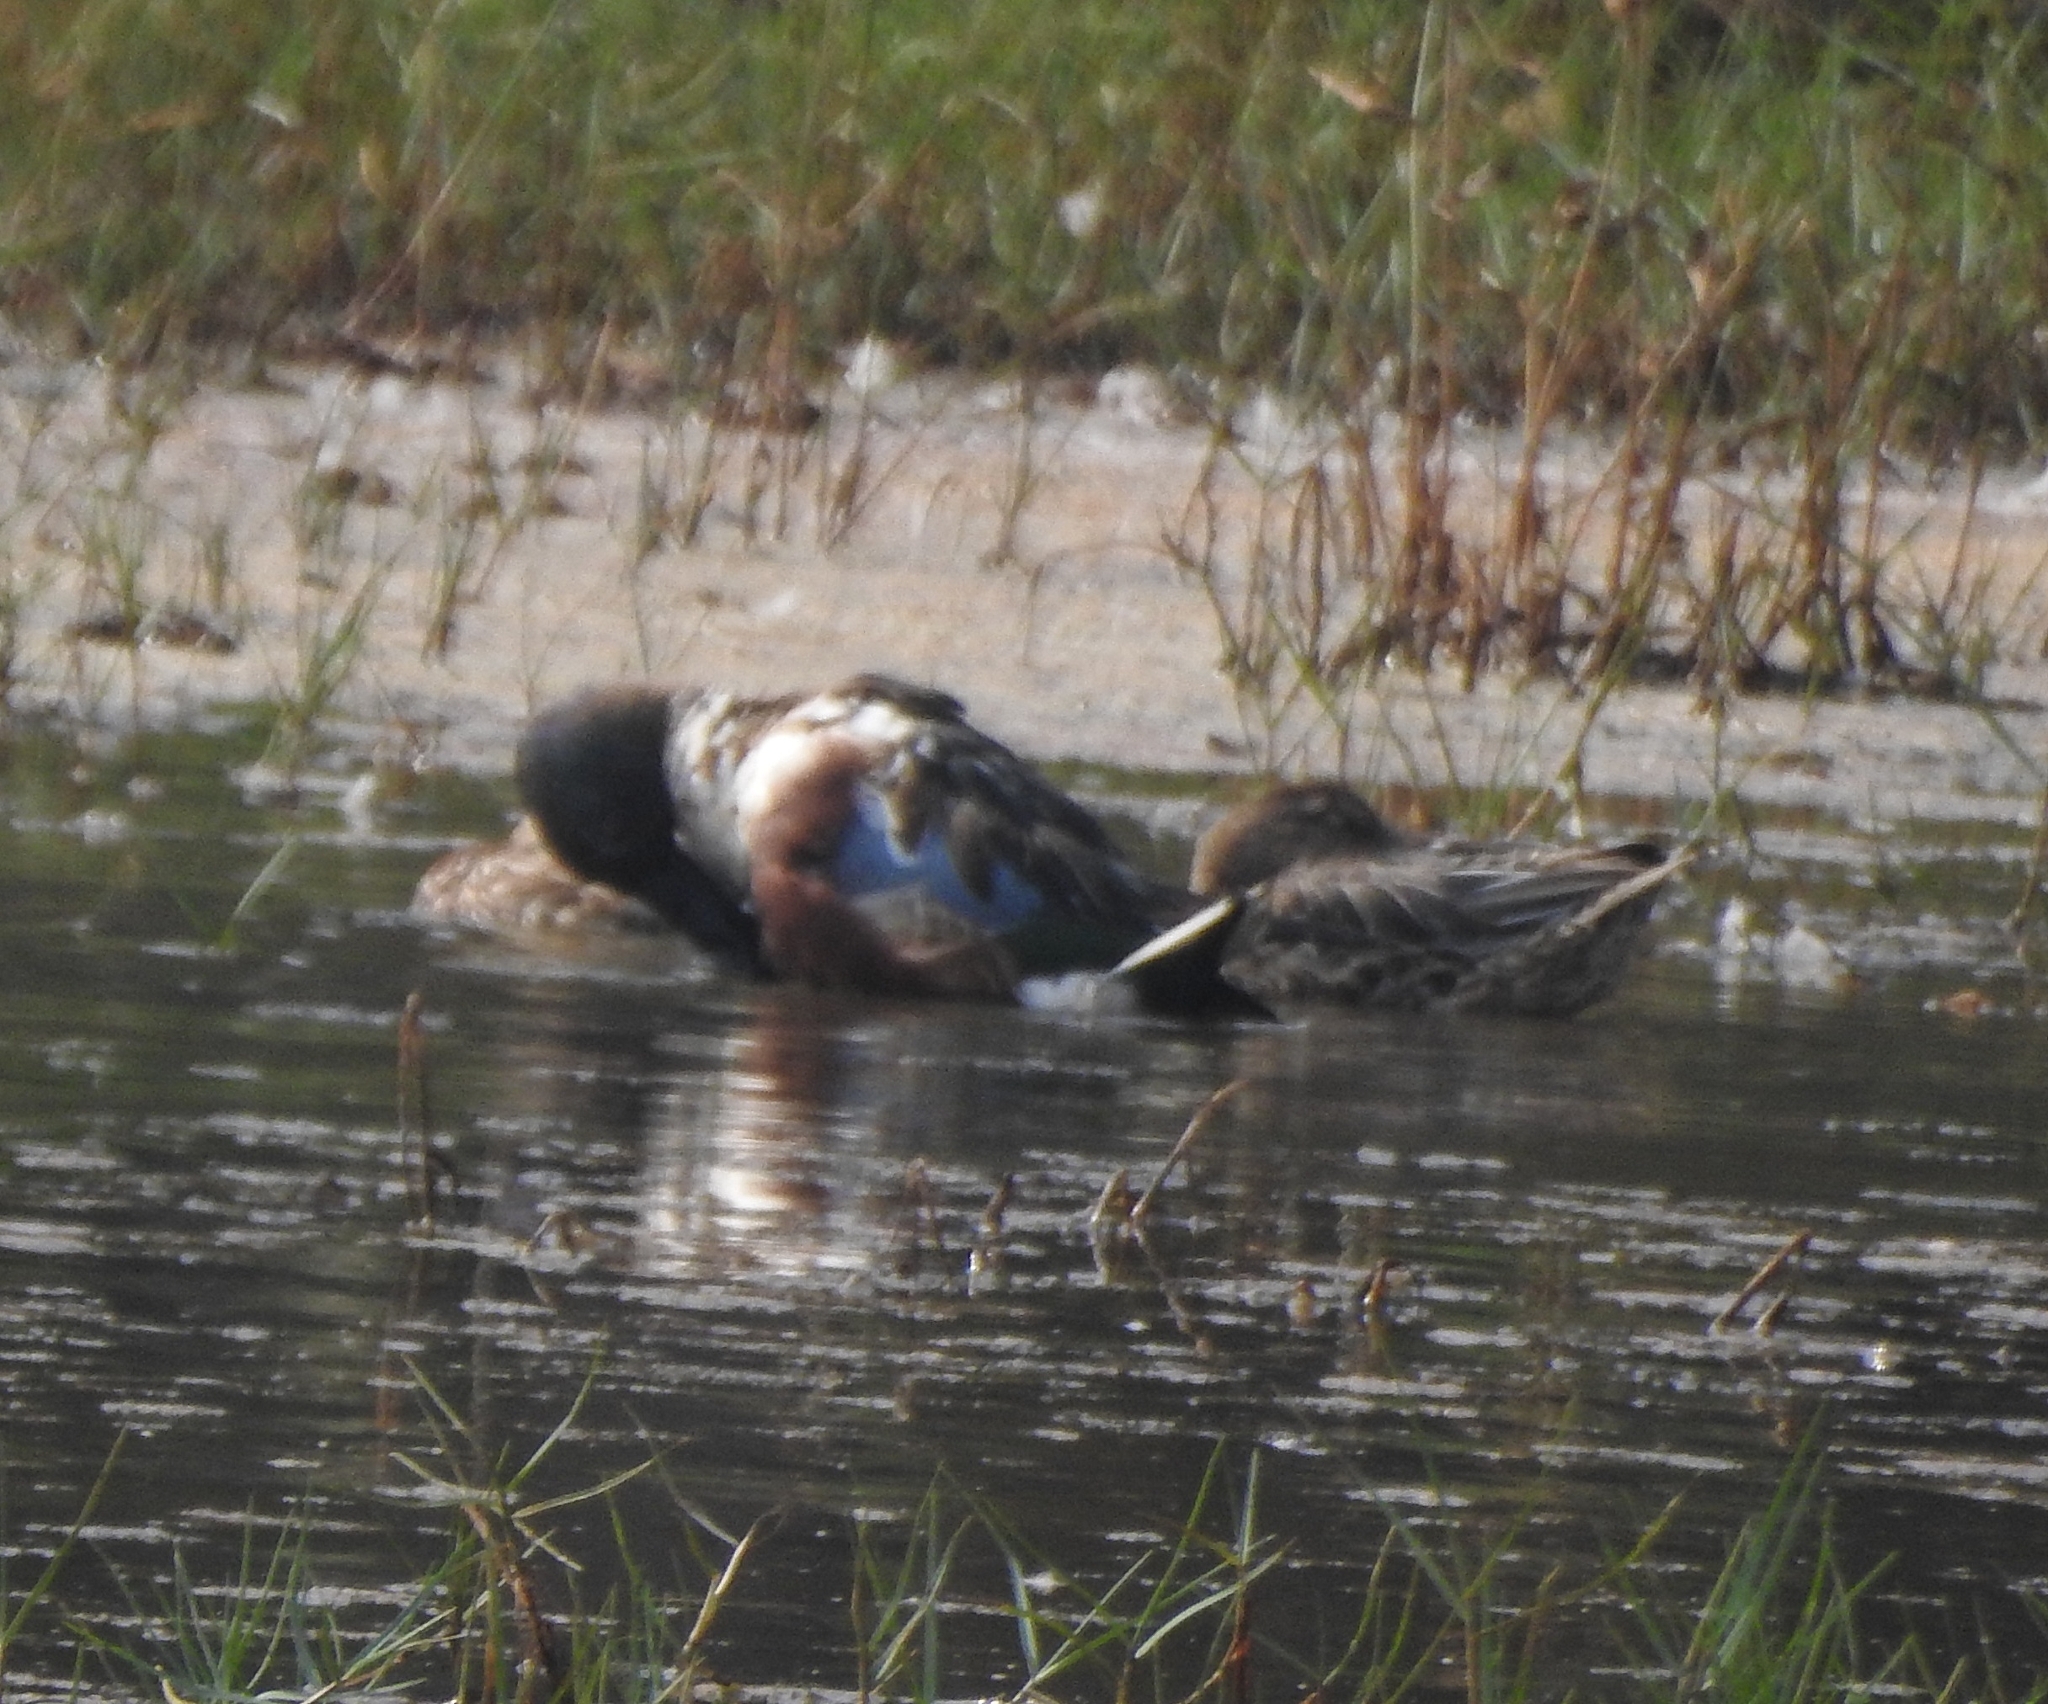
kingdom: Animalia
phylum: Chordata
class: Aves
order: Anseriformes
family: Anatidae
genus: Spatula
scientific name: Spatula clypeata
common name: Northern shoveler
